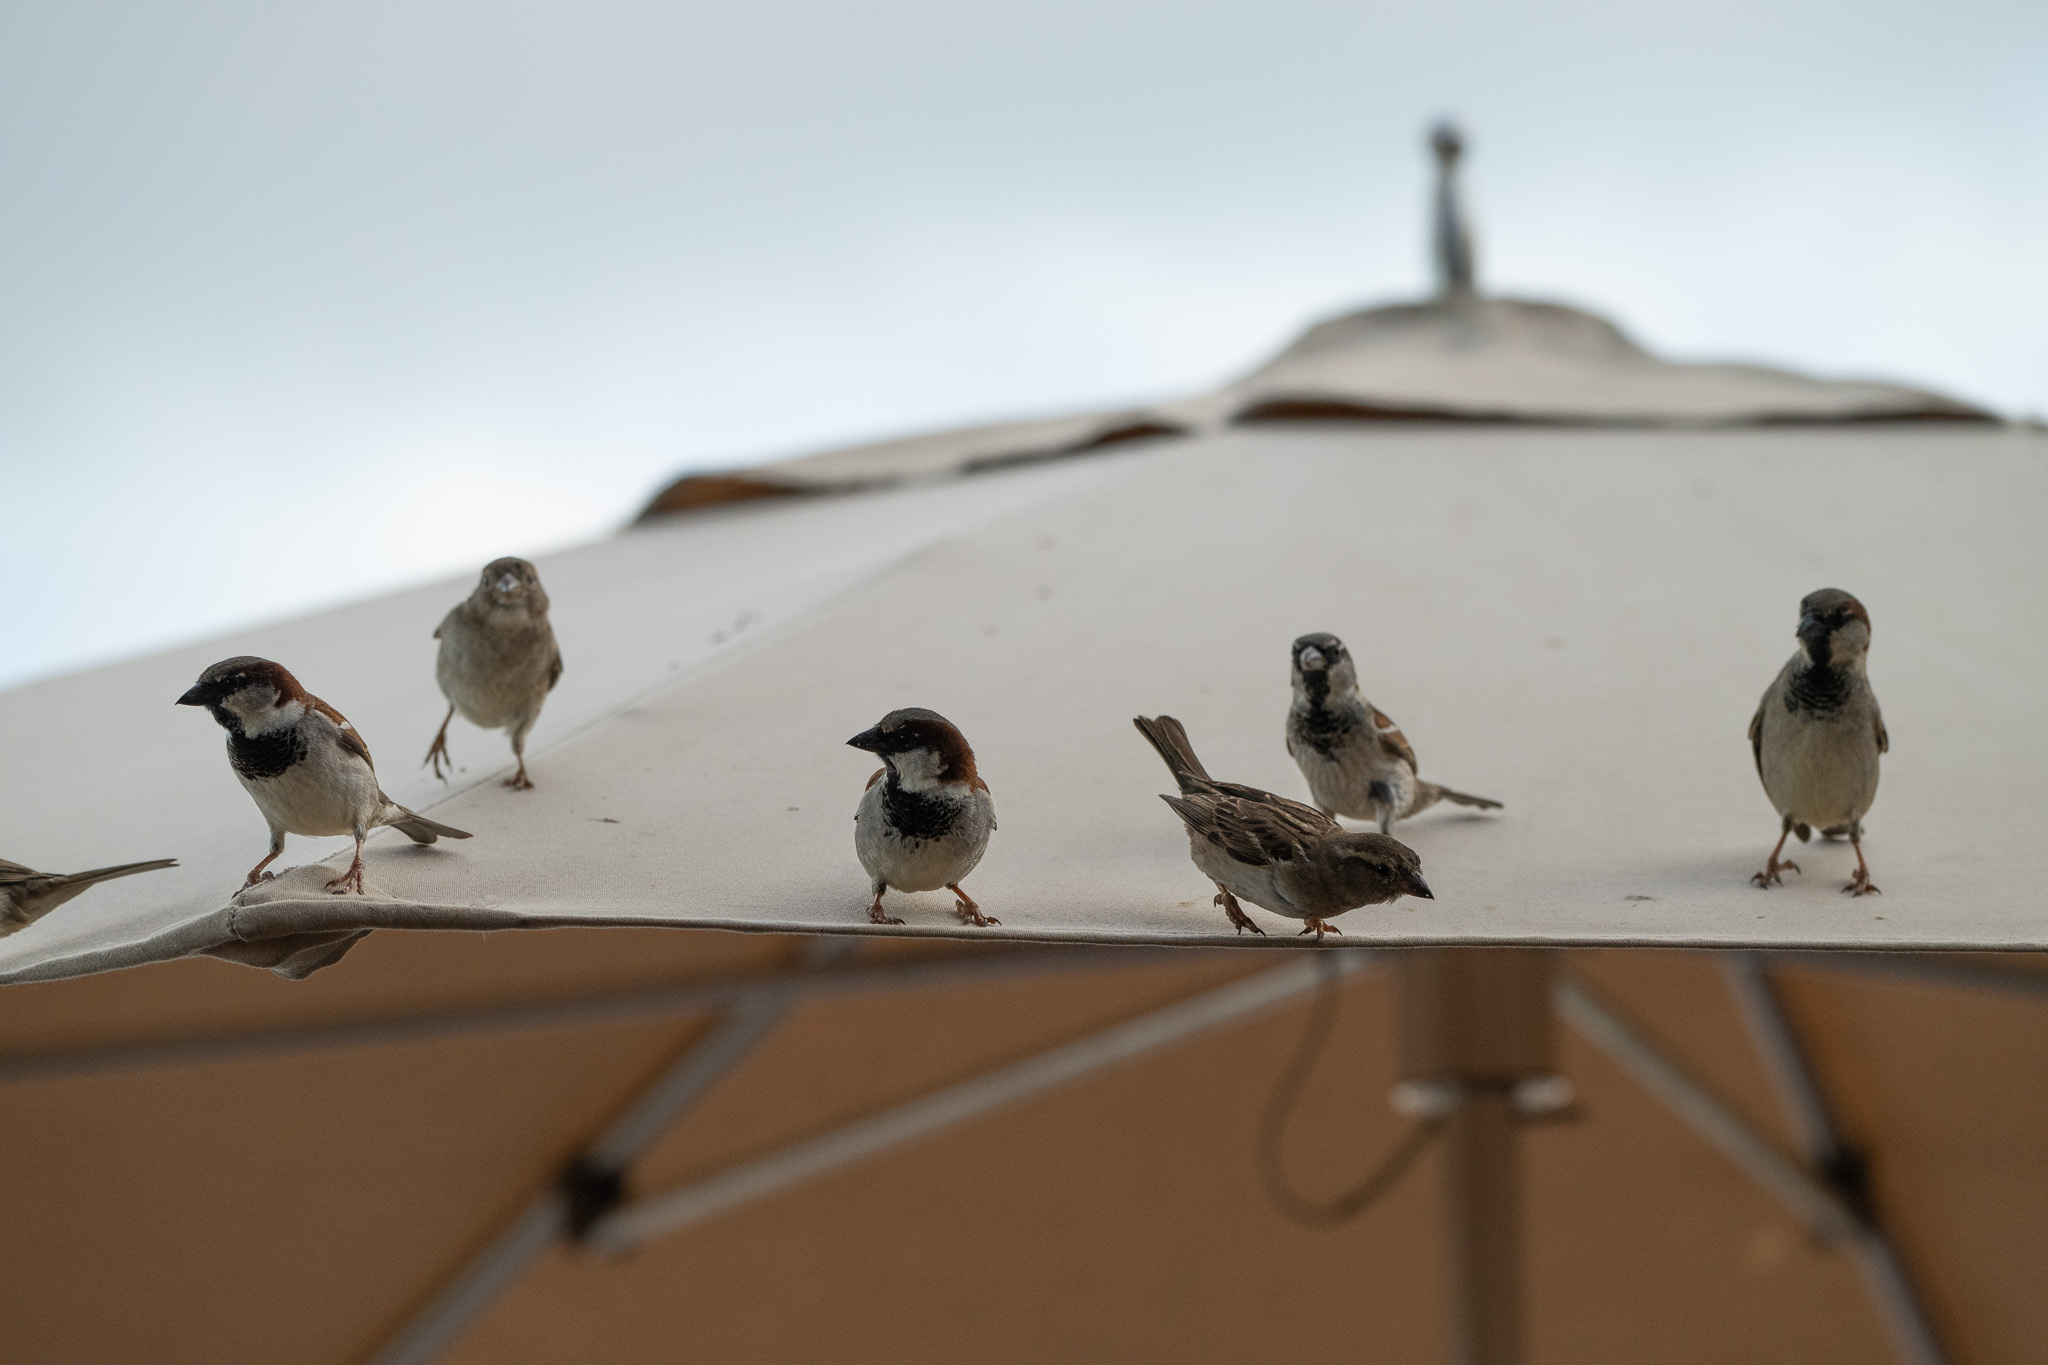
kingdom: Animalia
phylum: Chordata
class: Aves
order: Passeriformes
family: Passeridae
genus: Passer
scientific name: Passer domesticus
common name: House sparrow
